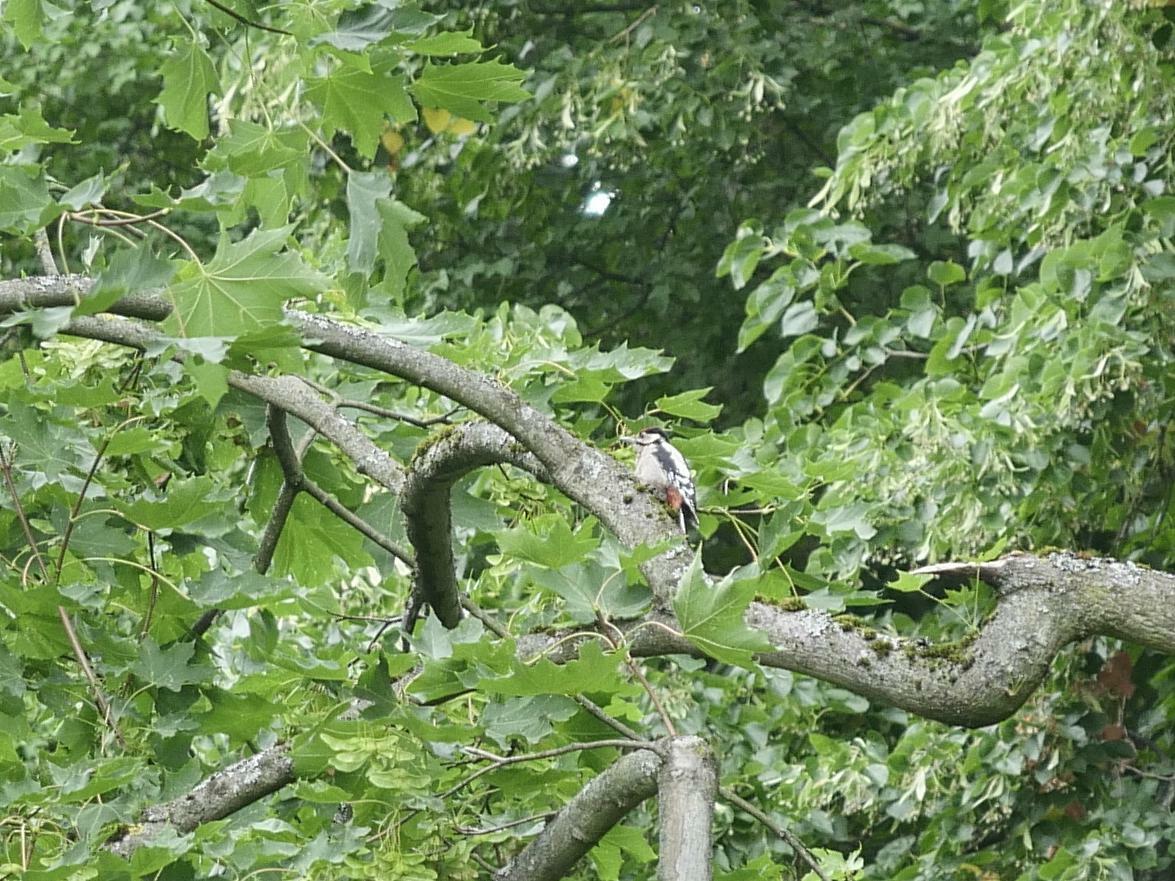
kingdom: Animalia
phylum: Chordata
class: Aves
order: Piciformes
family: Picidae
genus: Dendrocopos
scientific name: Dendrocopos major
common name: Great spotted woodpecker
